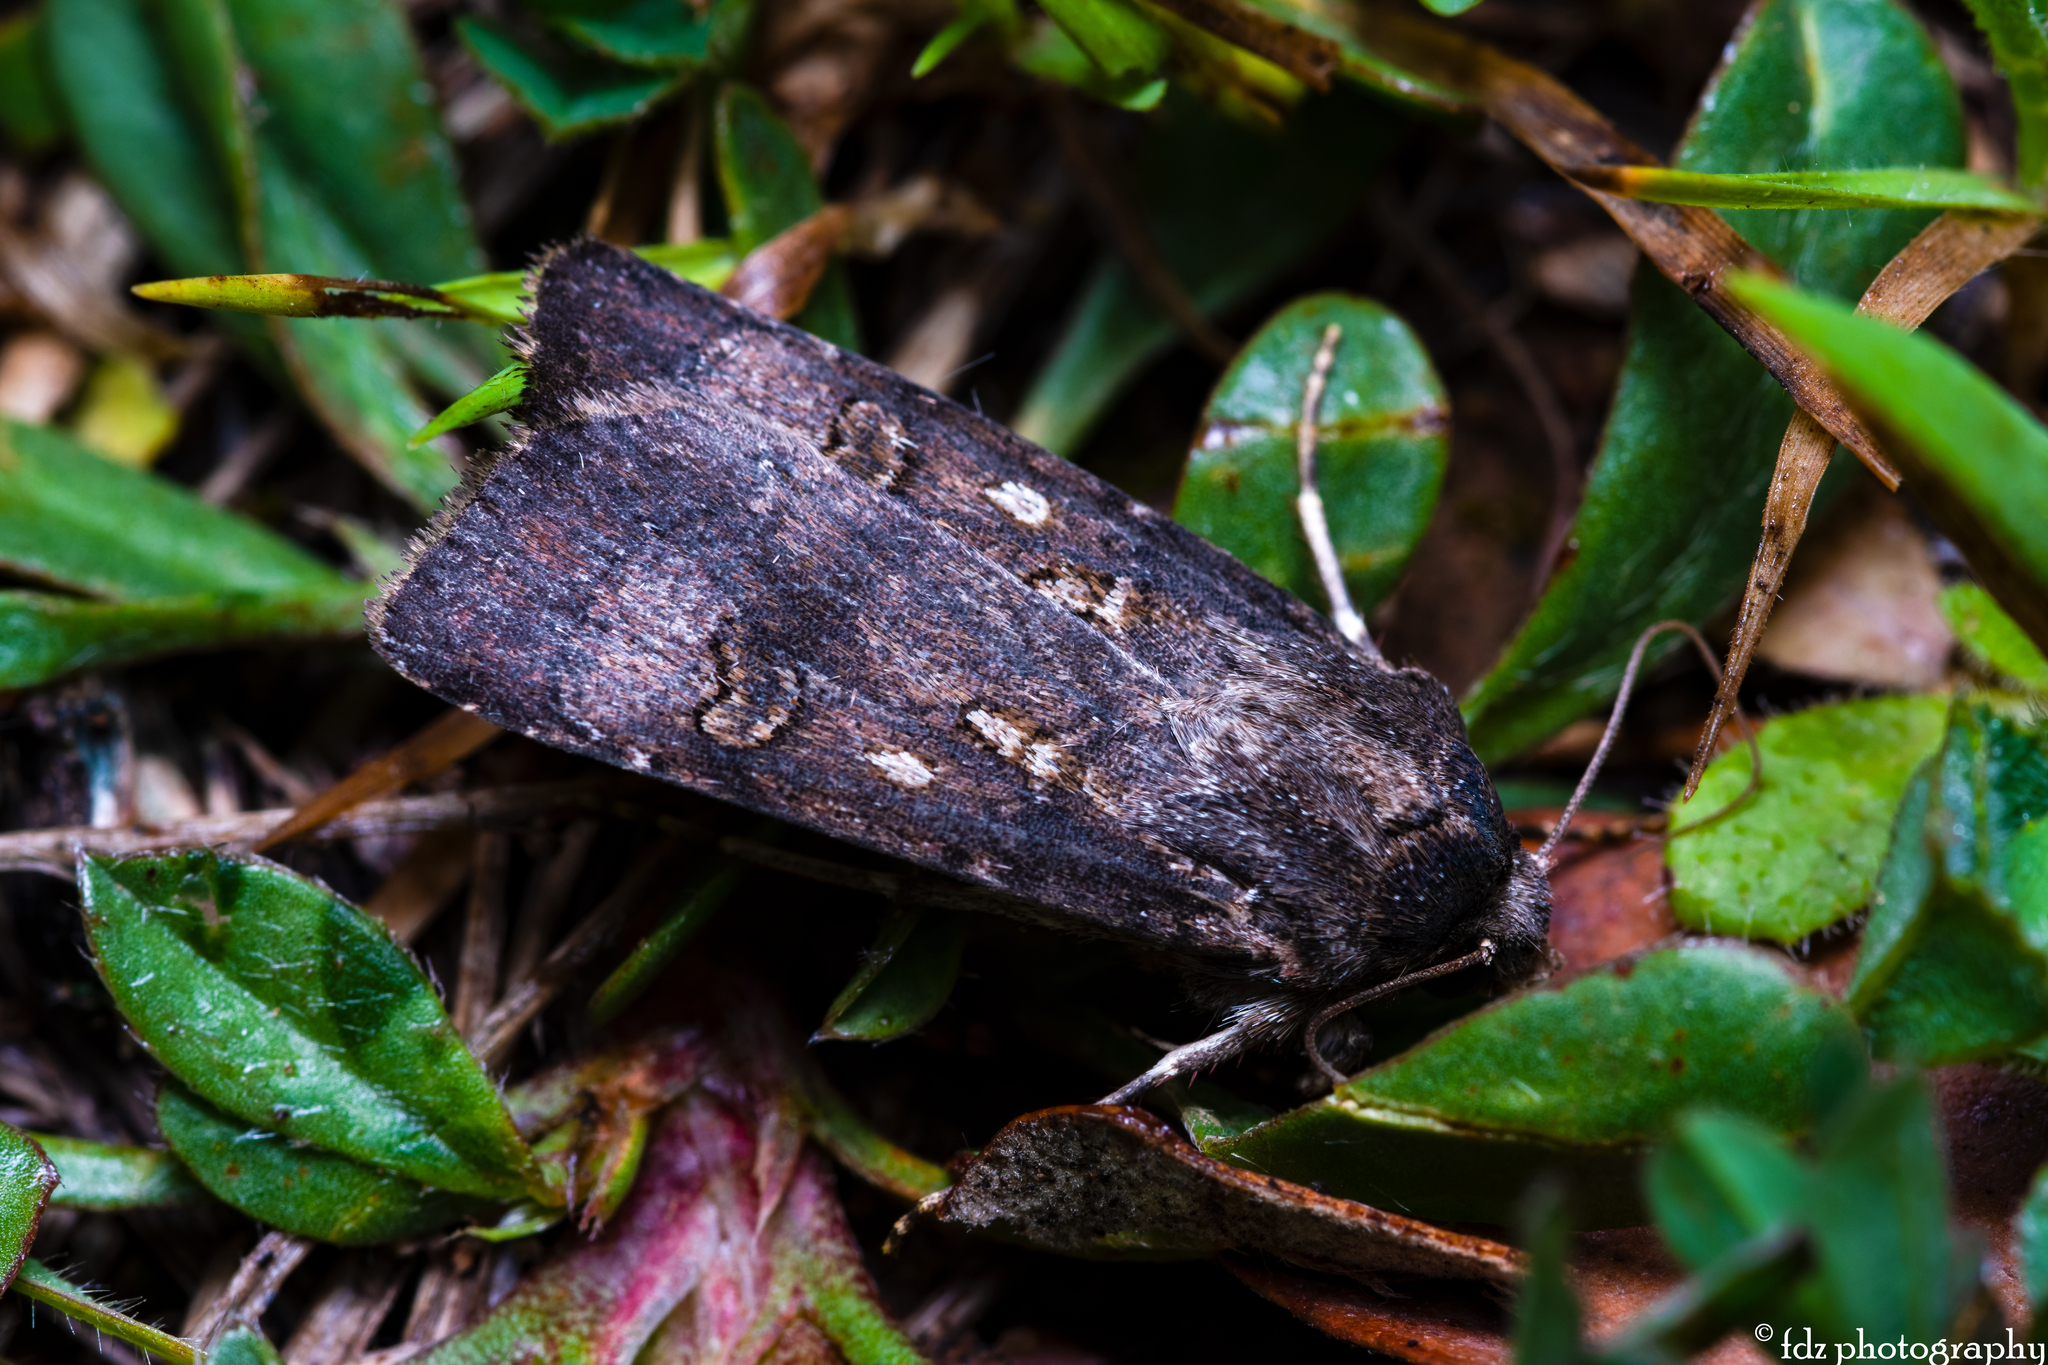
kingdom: Animalia
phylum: Arthropoda
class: Insecta
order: Lepidoptera
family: Noctuidae
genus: Agrotis
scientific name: Agrotis trux
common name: Crescent dart
